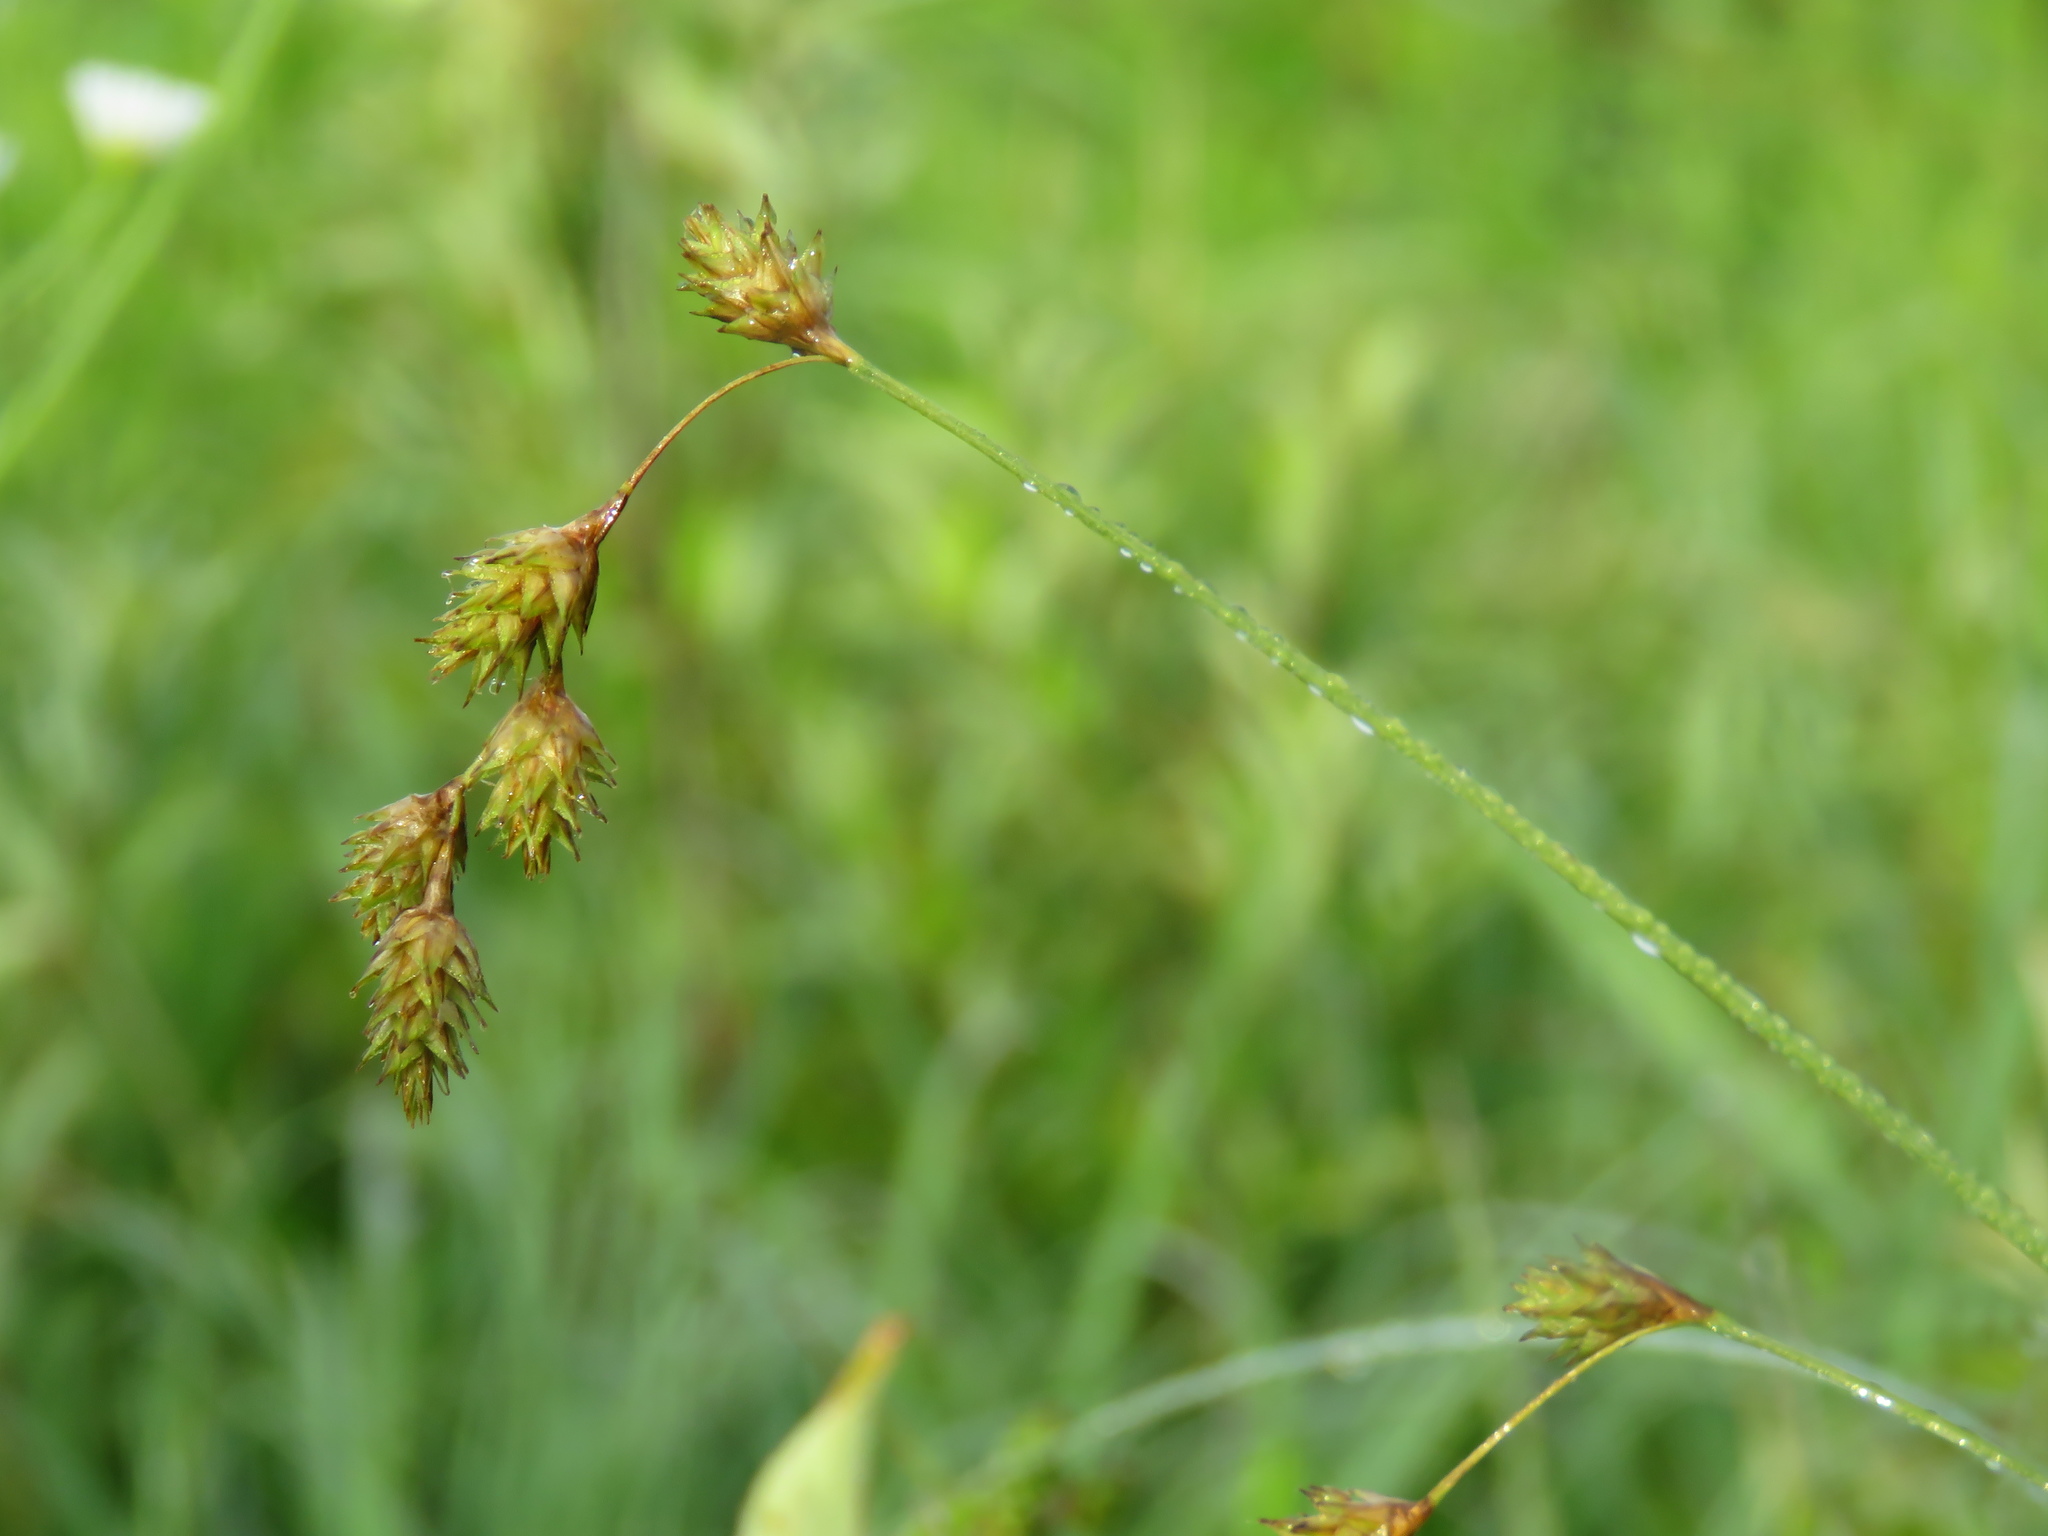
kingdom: Plantae
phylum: Tracheophyta
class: Liliopsida
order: Poales
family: Cyperaceae
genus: Carex
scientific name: Carex tenera
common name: Broad-fruited sedge
